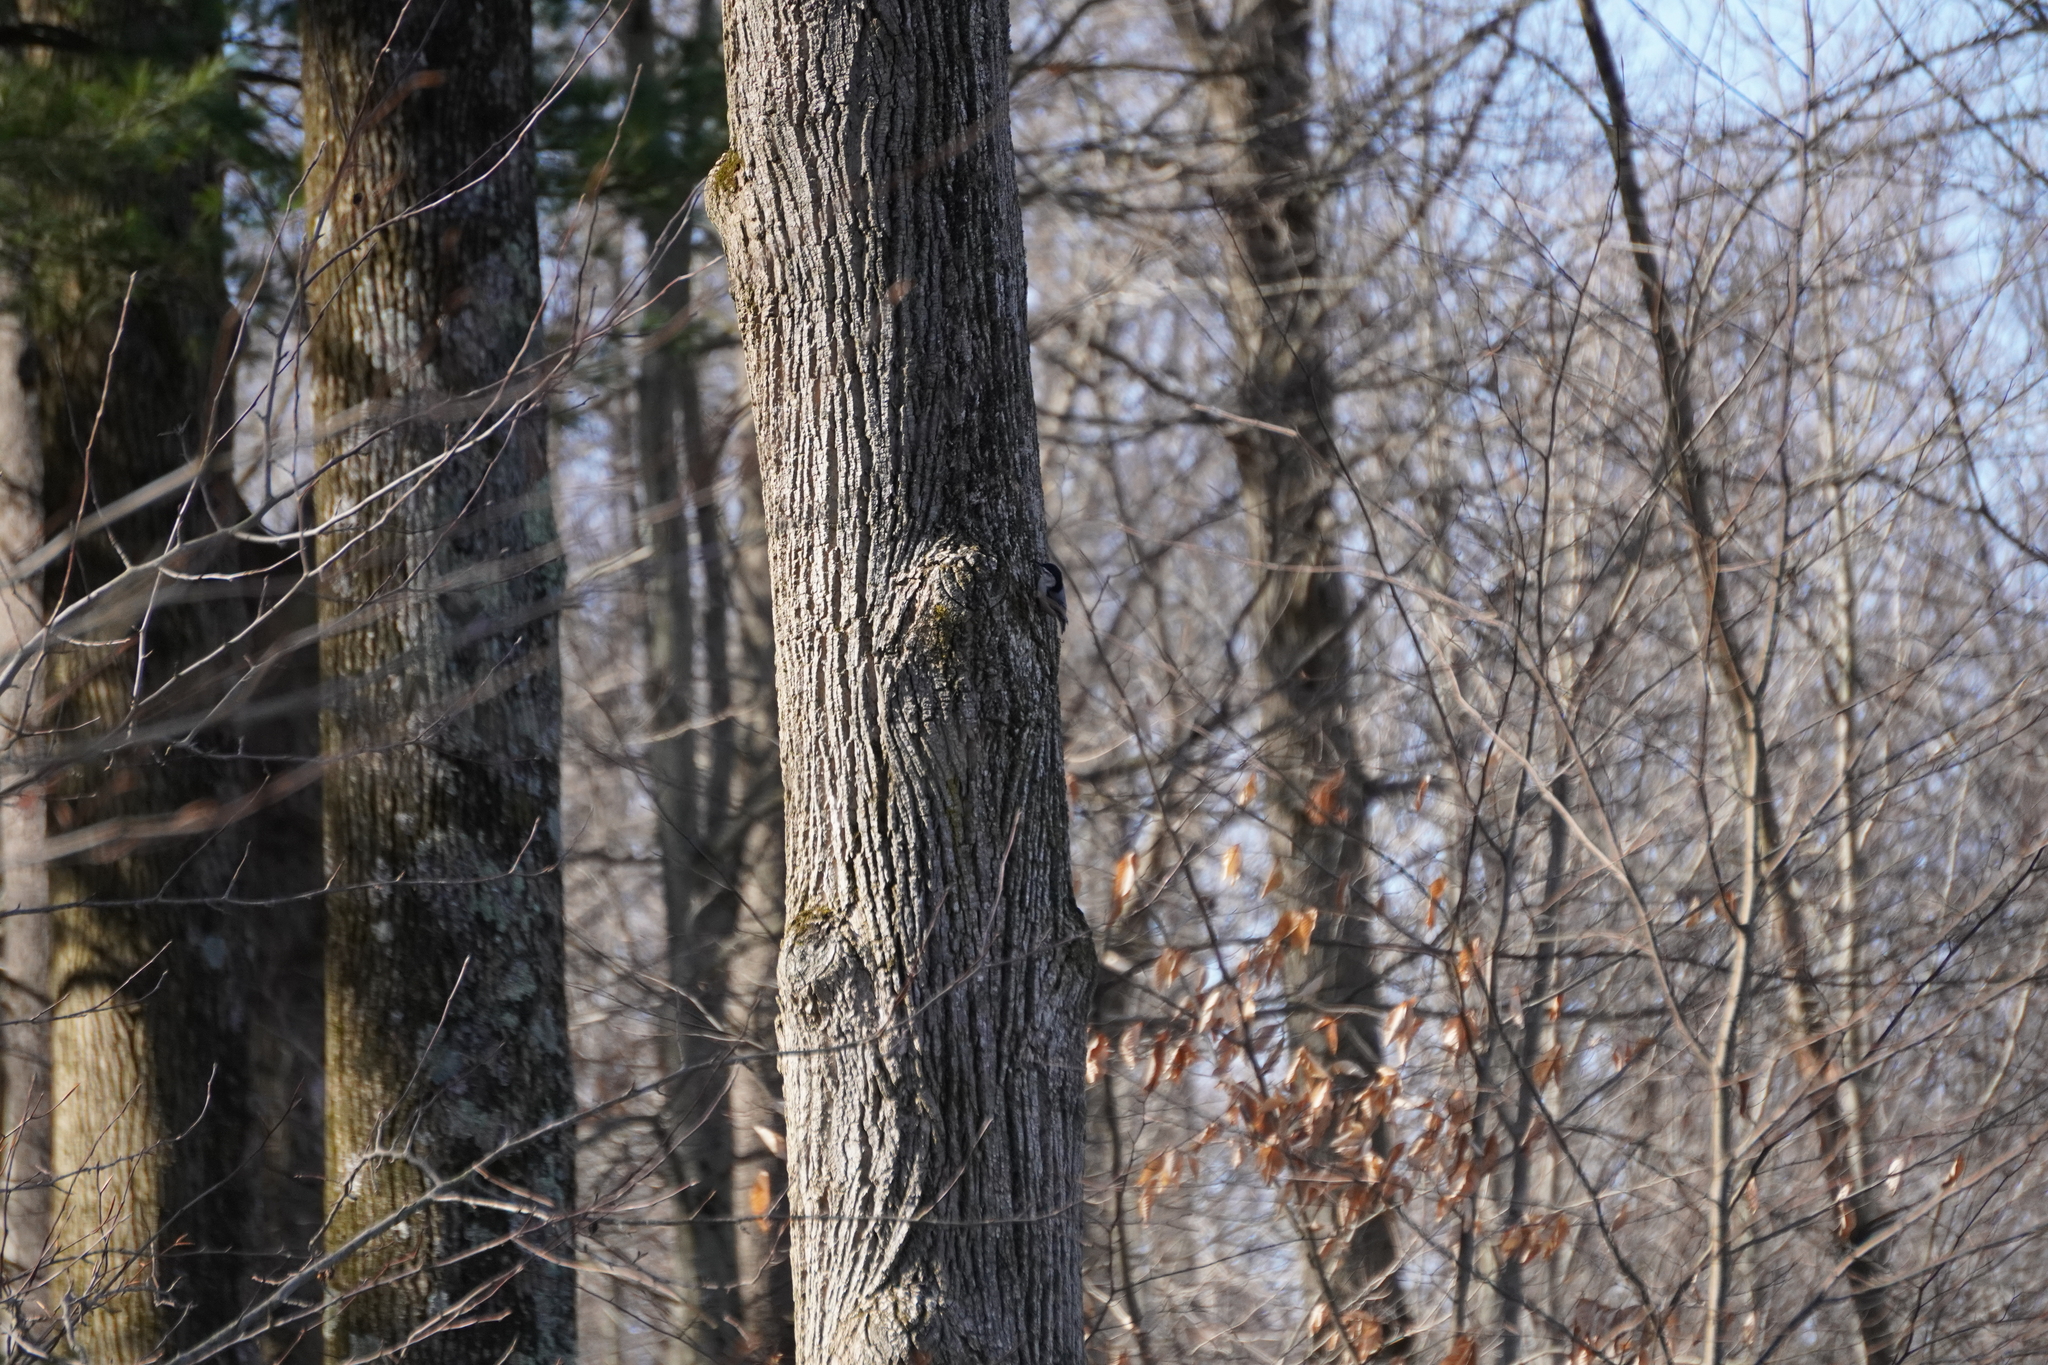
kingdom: Animalia
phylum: Chordata
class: Aves
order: Passeriformes
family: Sittidae
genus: Sitta
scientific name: Sitta carolinensis
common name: White-breasted nuthatch
